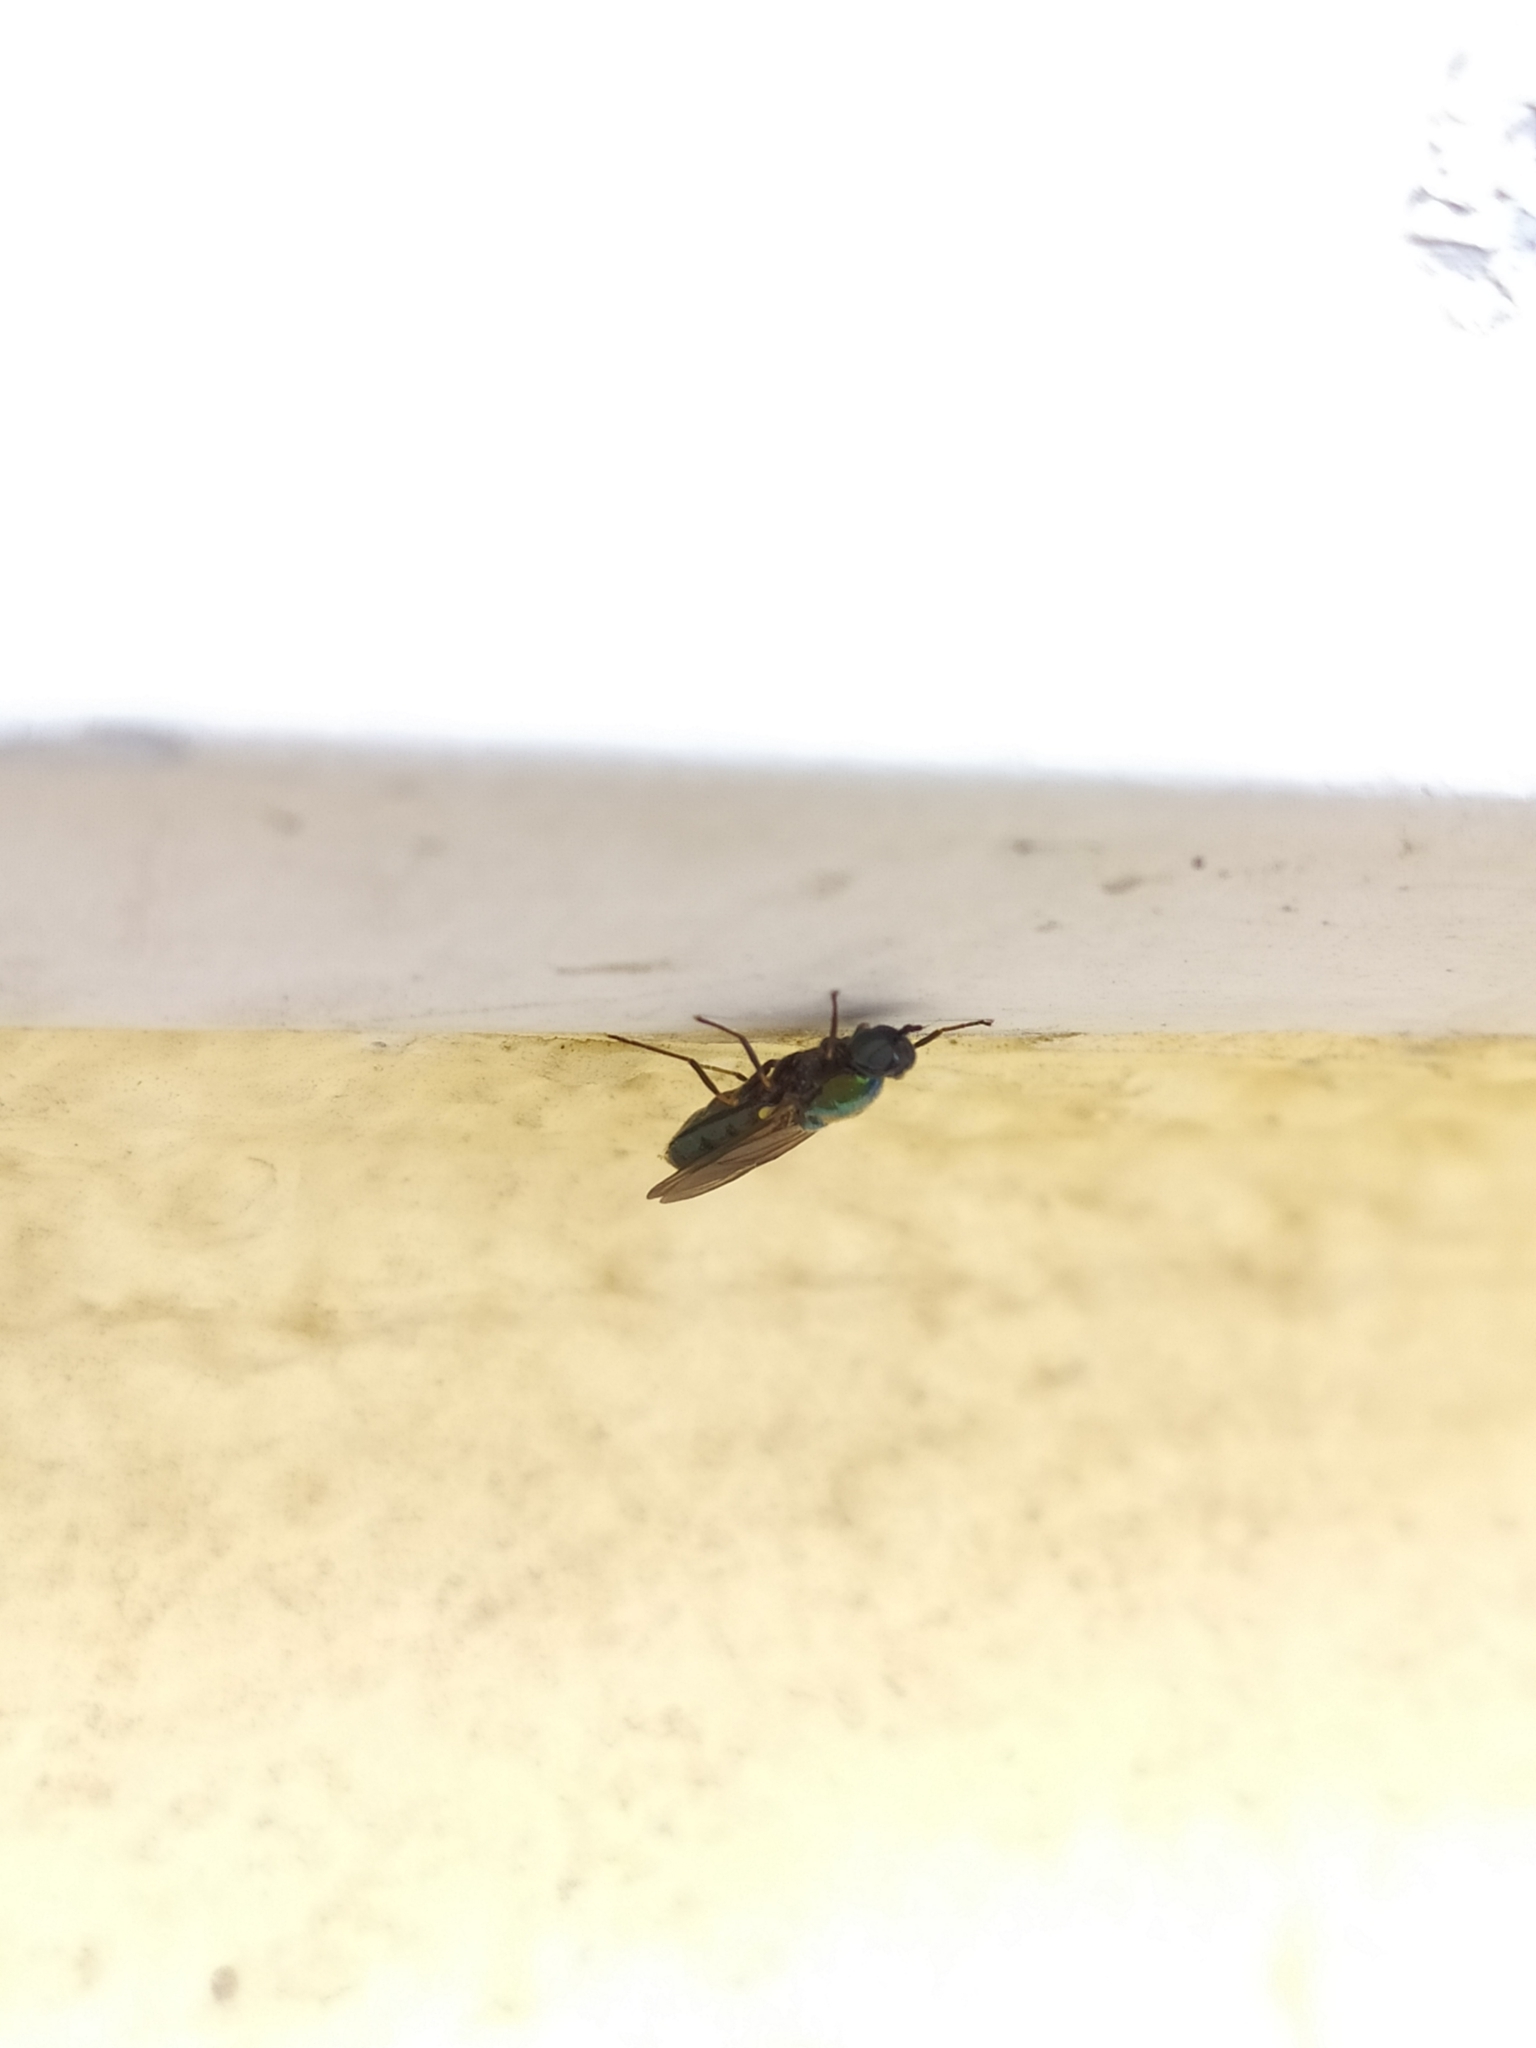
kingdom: Animalia
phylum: Arthropoda
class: Insecta
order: Diptera
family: Stratiomyidae
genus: Chloromyia
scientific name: Chloromyia formosa
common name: Soldier fly
